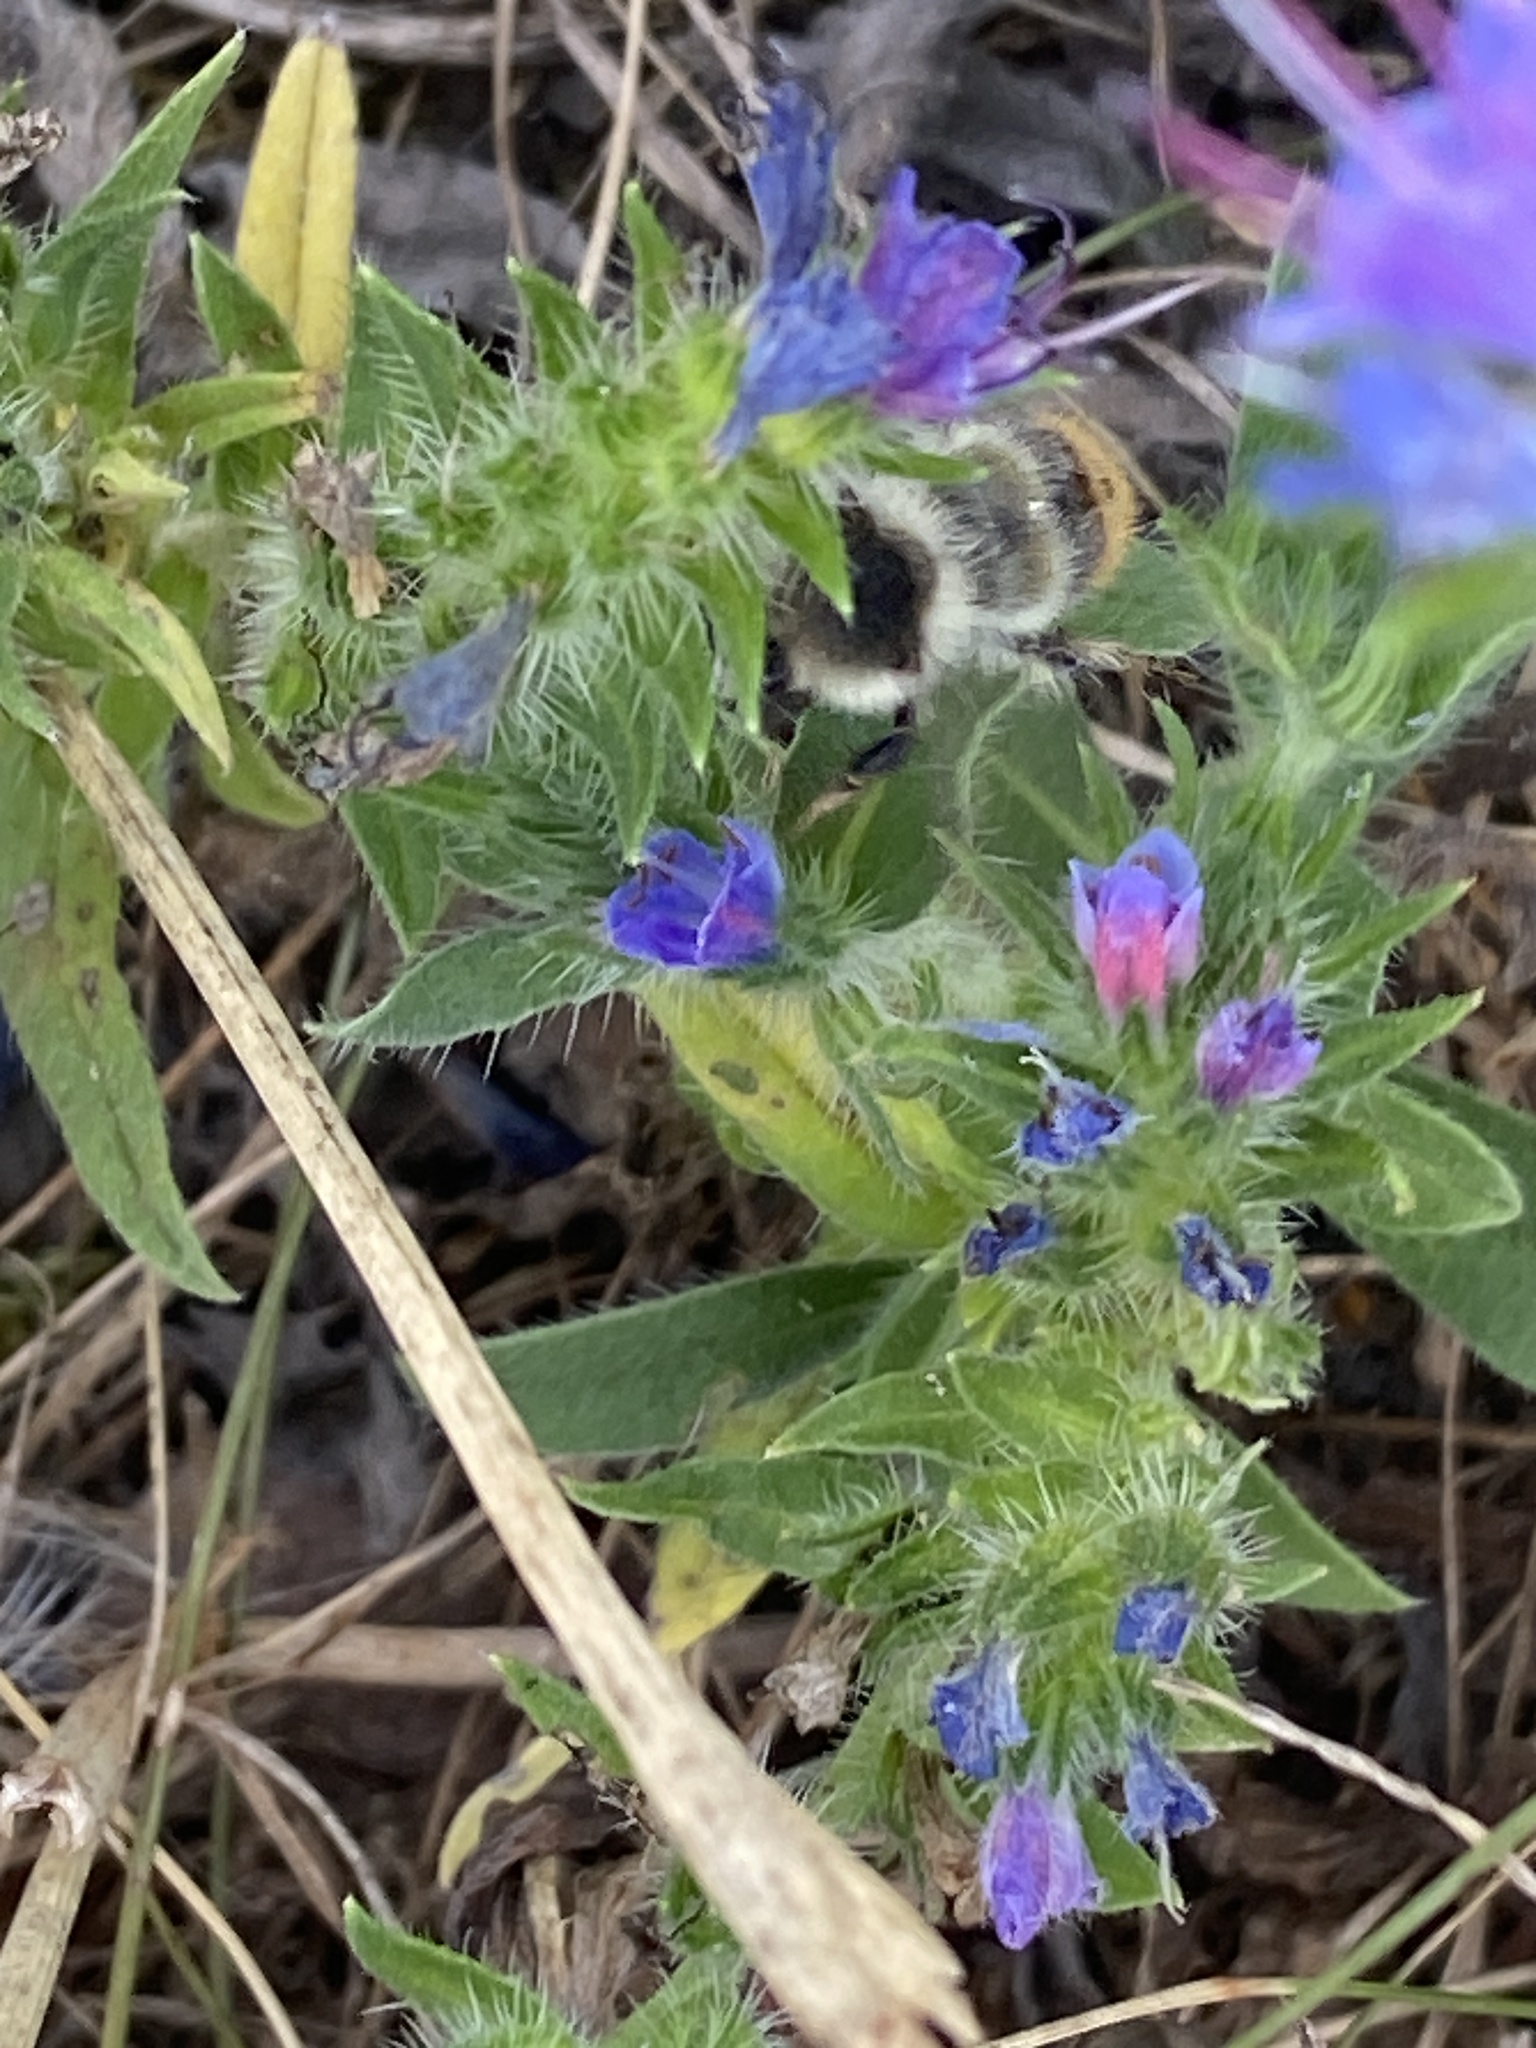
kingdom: Animalia
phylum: Arthropoda
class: Insecta
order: Hymenoptera
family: Apidae
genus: Bombus
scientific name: Bombus sylvarum
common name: Shrill carder bee
